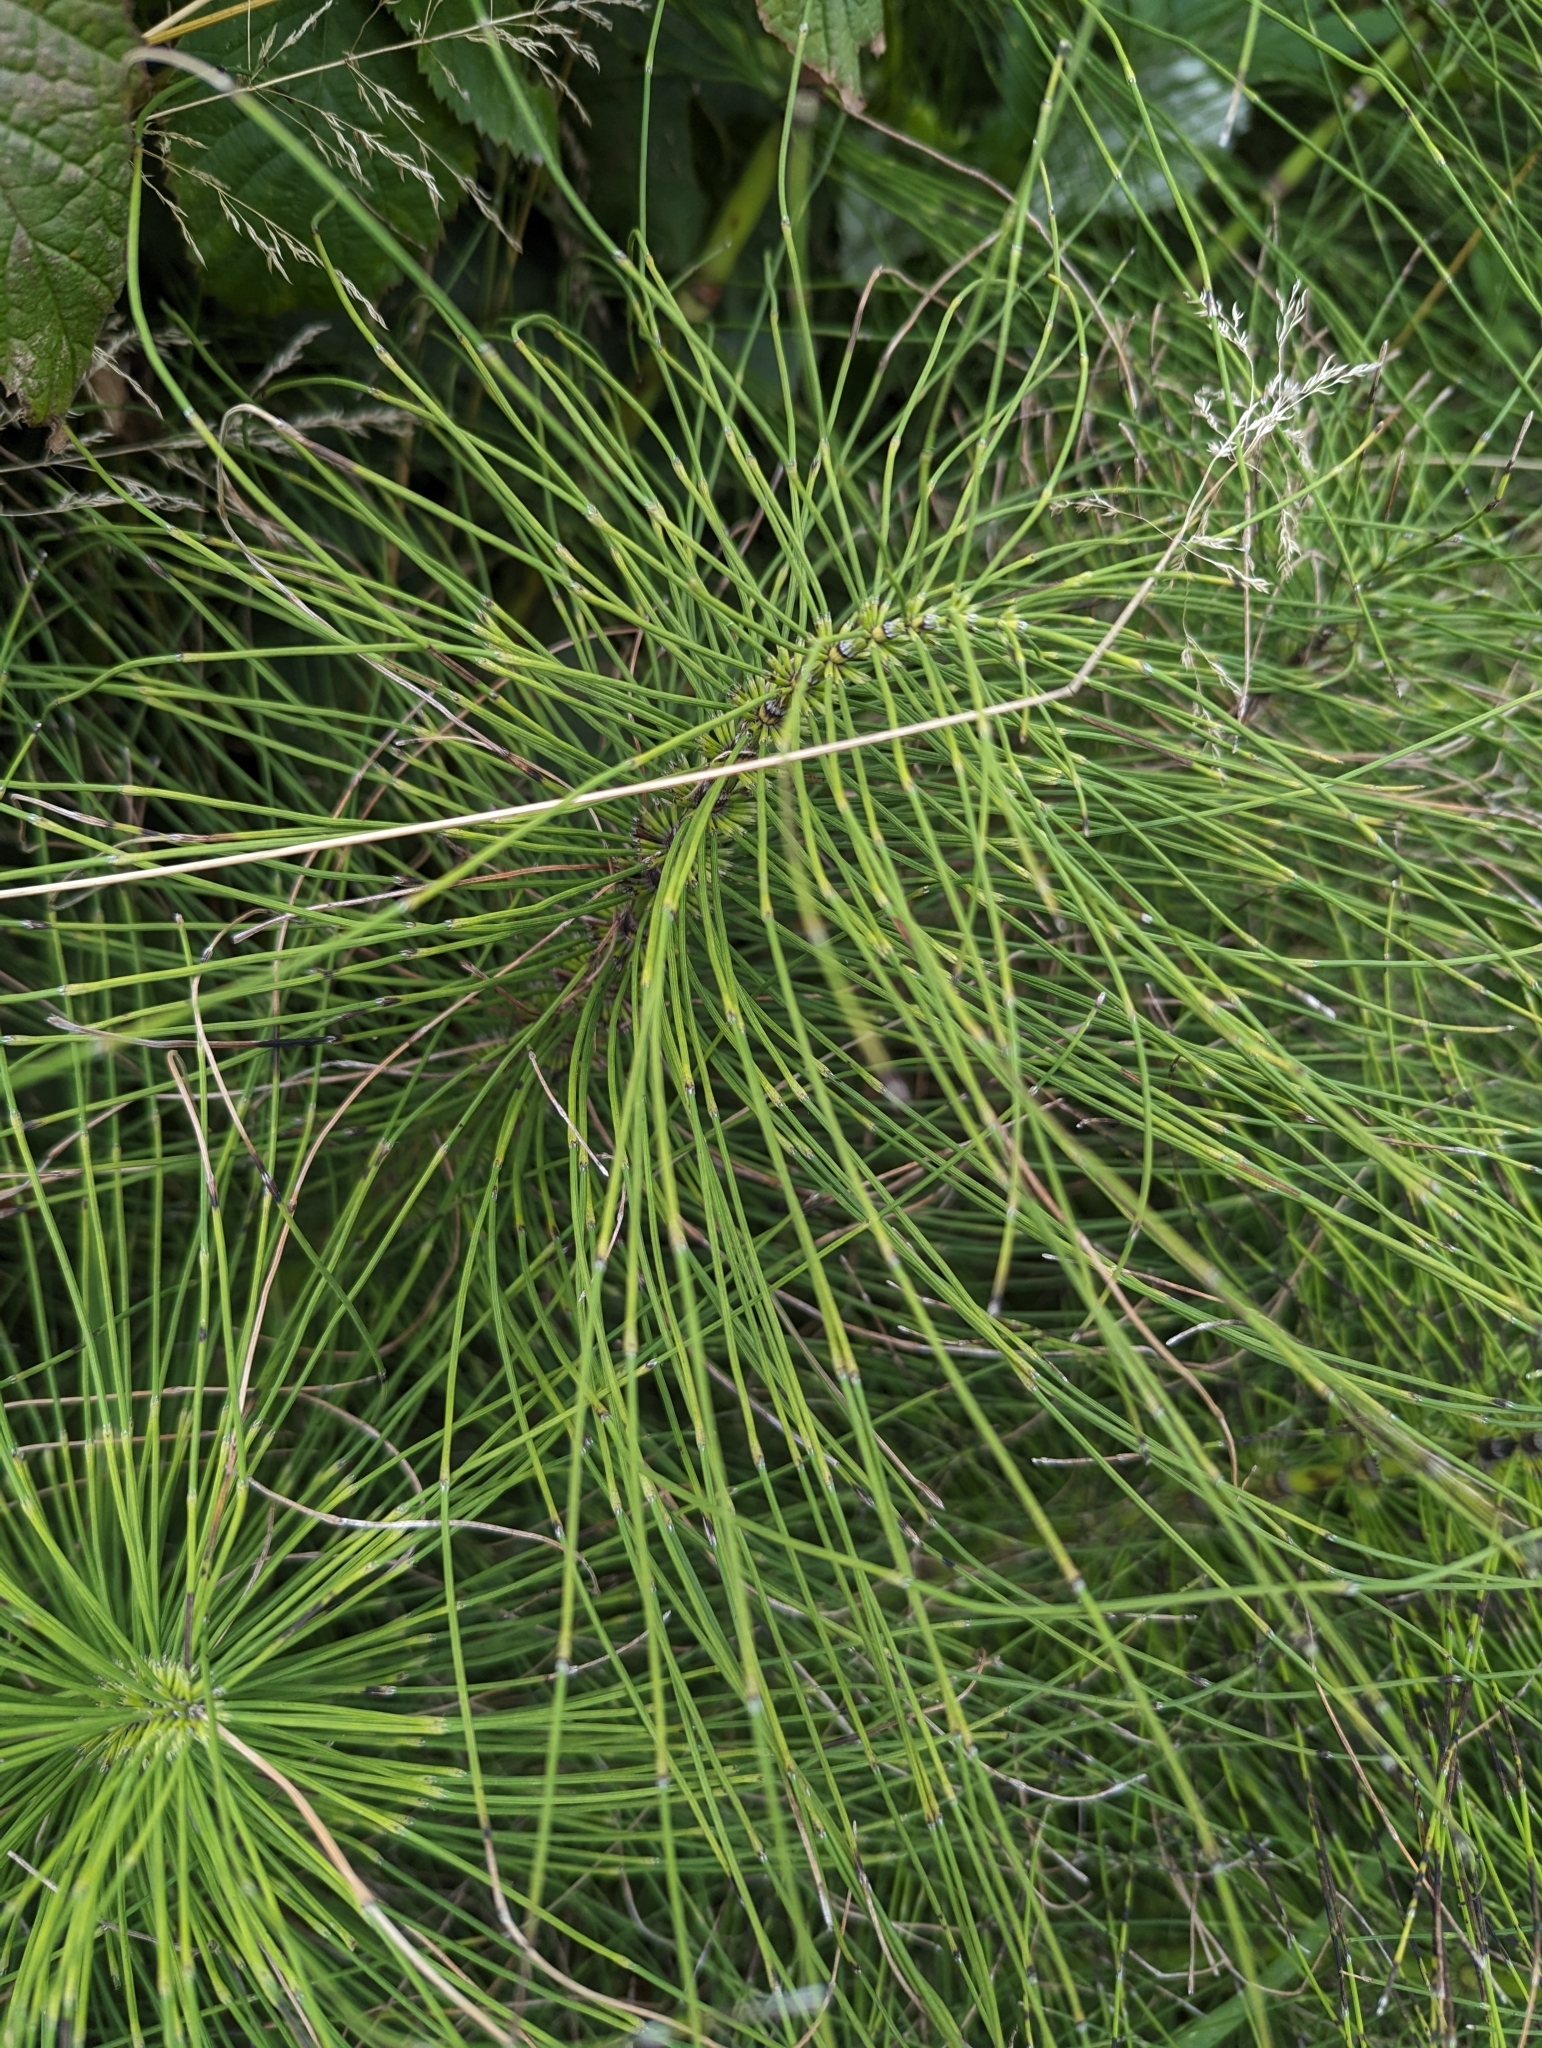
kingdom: Plantae
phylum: Tracheophyta
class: Polypodiopsida
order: Equisetales
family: Equisetaceae
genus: Equisetum
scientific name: Equisetum braunii
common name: Braun's horsetail
